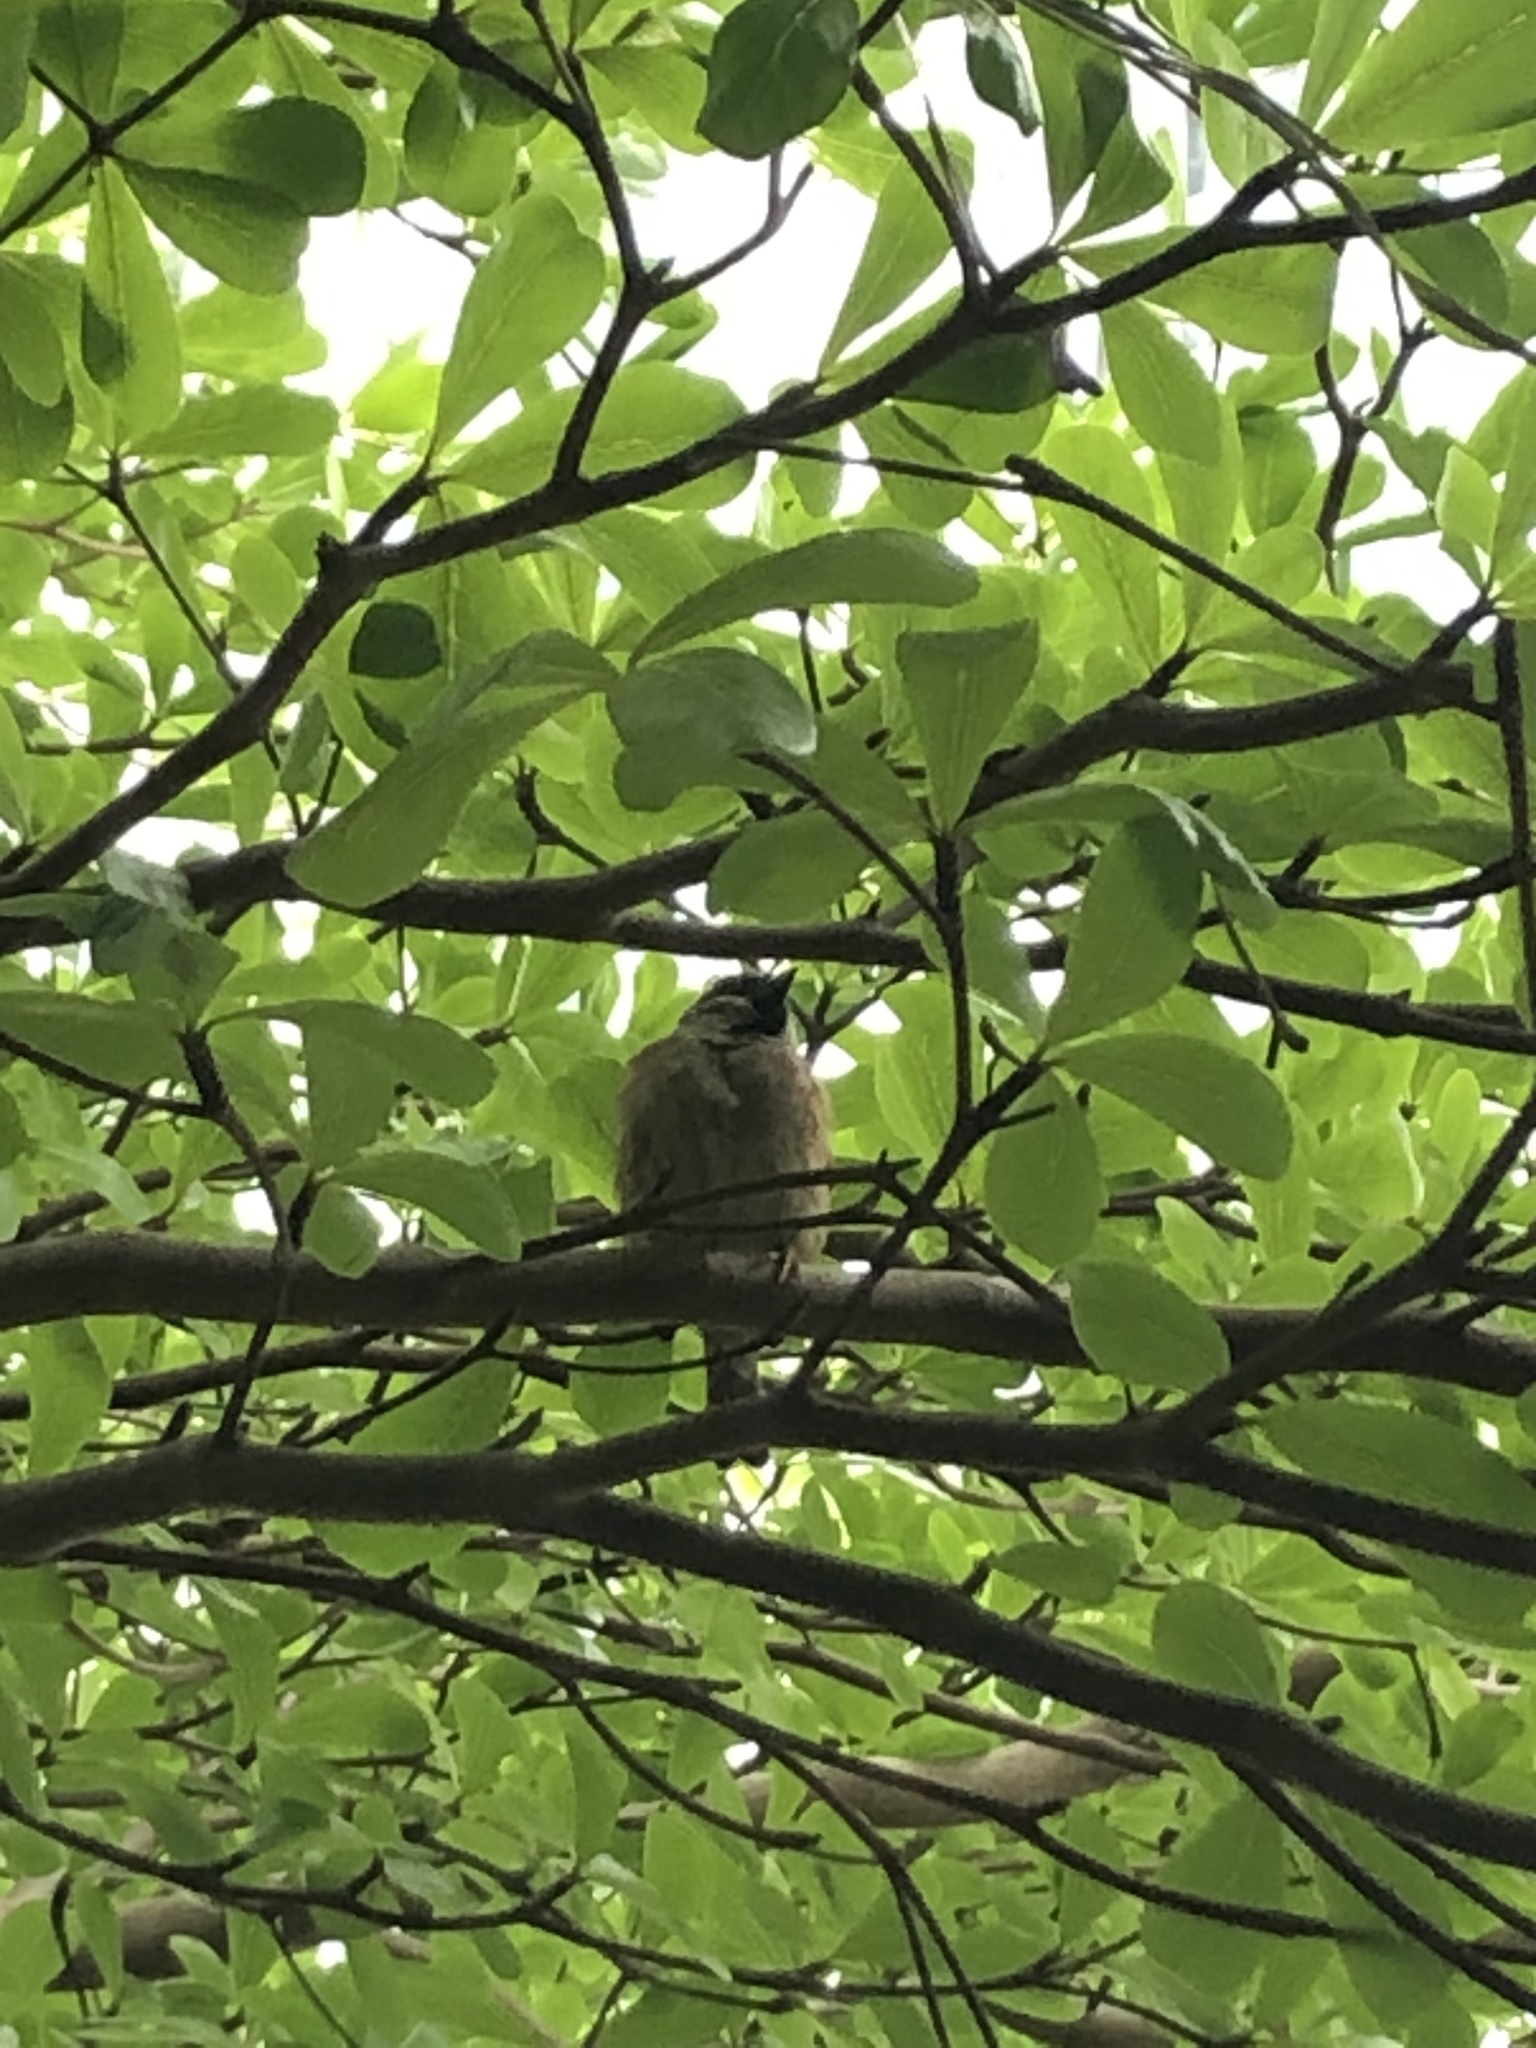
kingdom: Animalia
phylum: Chordata
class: Aves
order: Passeriformes
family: Passeridae
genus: Passer
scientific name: Passer montanus
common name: Eurasian tree sparrow
